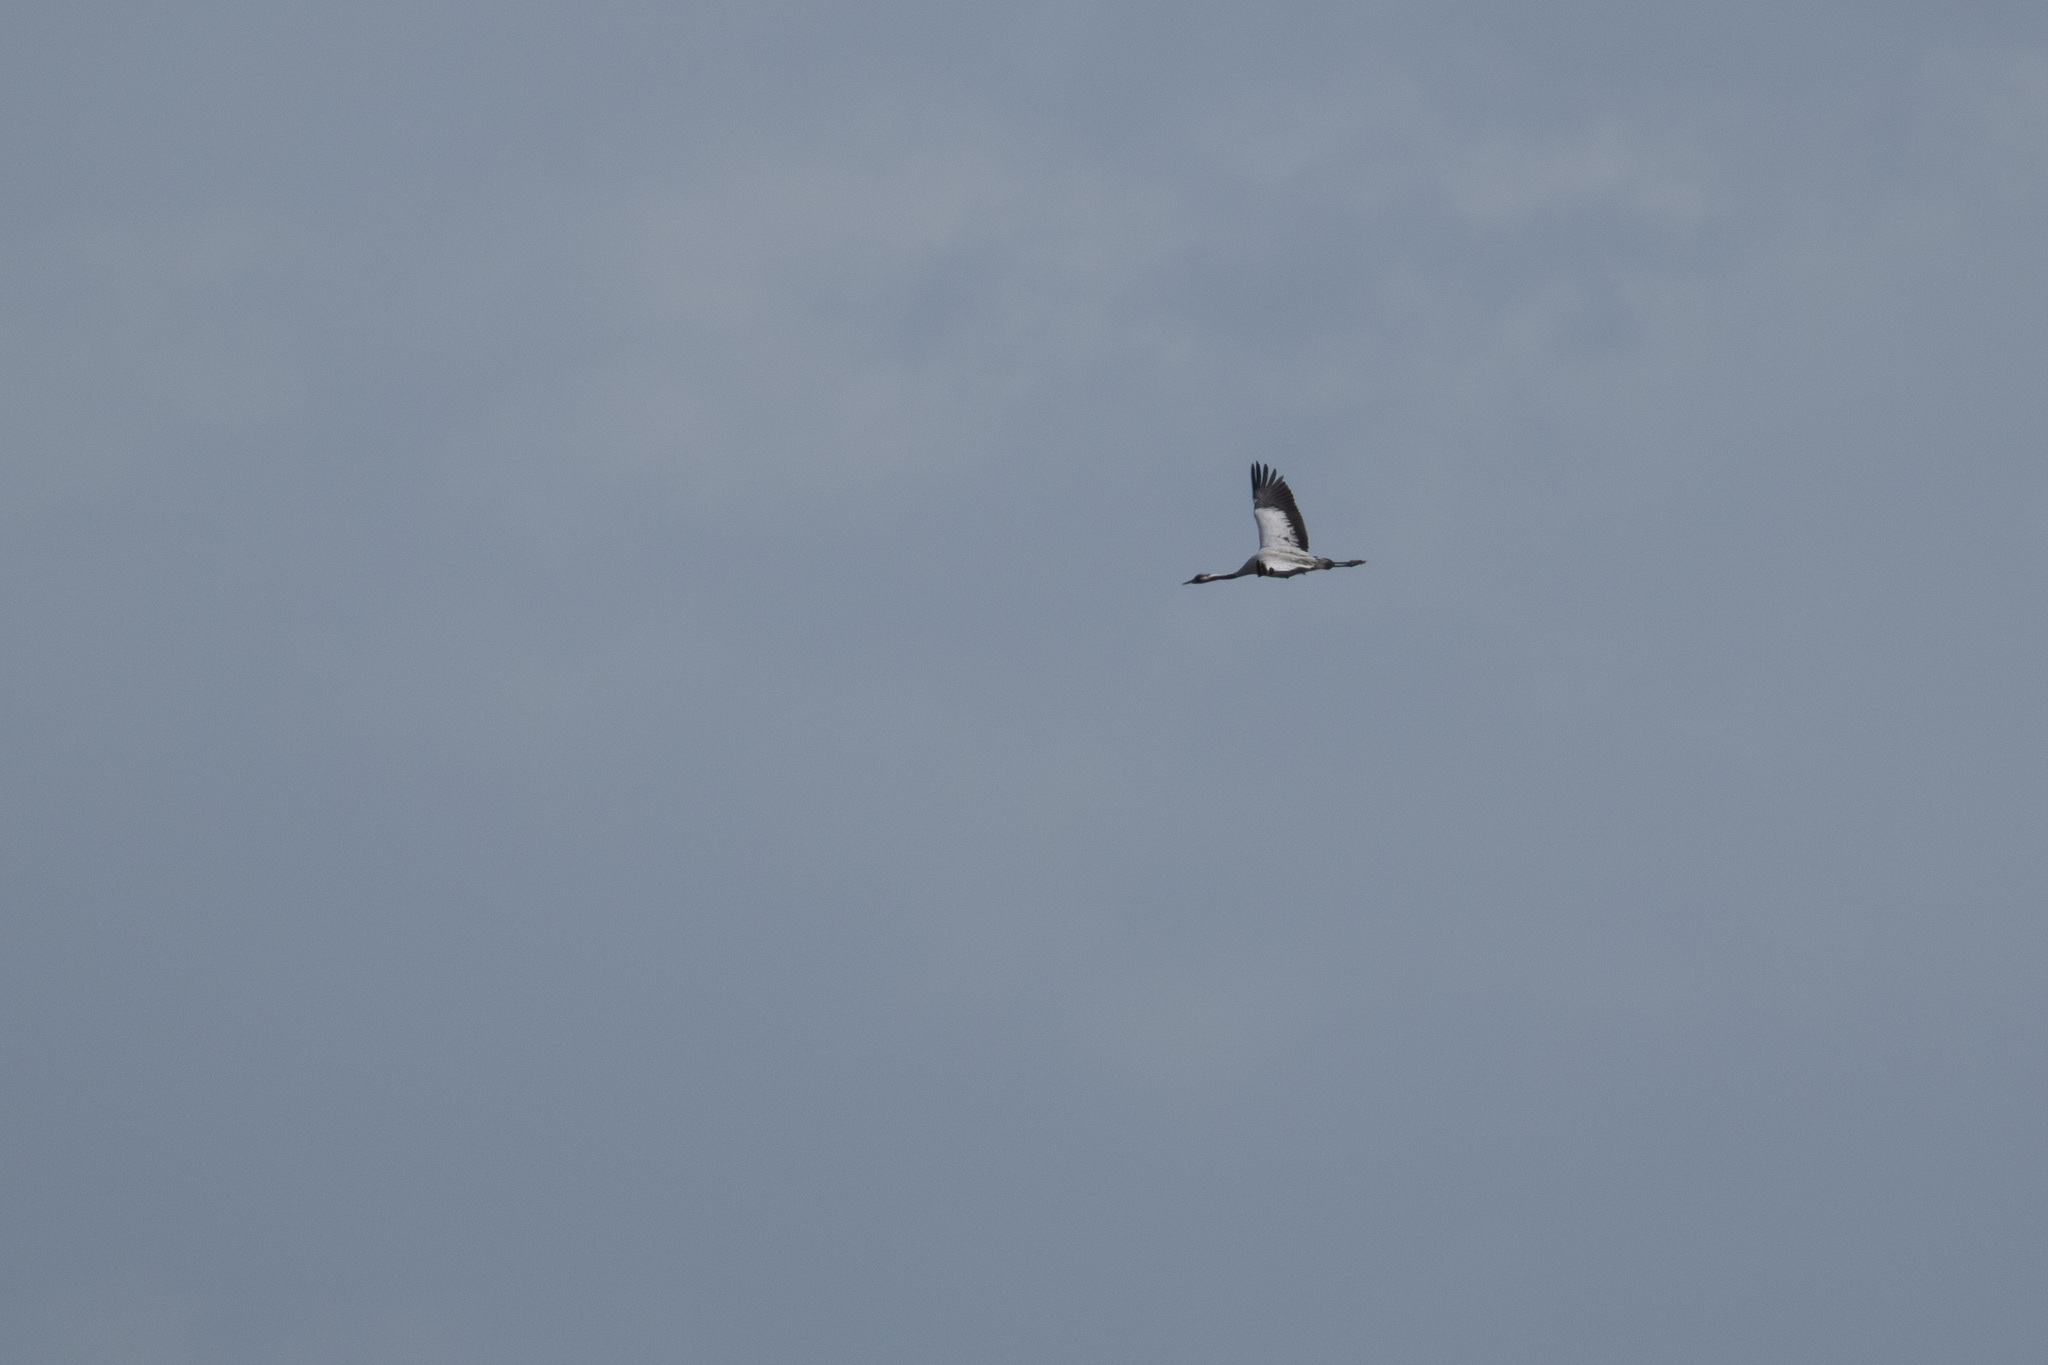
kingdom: Animalia
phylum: Chordata
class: Aves
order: Gruiformes
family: Gruidae
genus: Grus
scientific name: Grus grus
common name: Common crane
